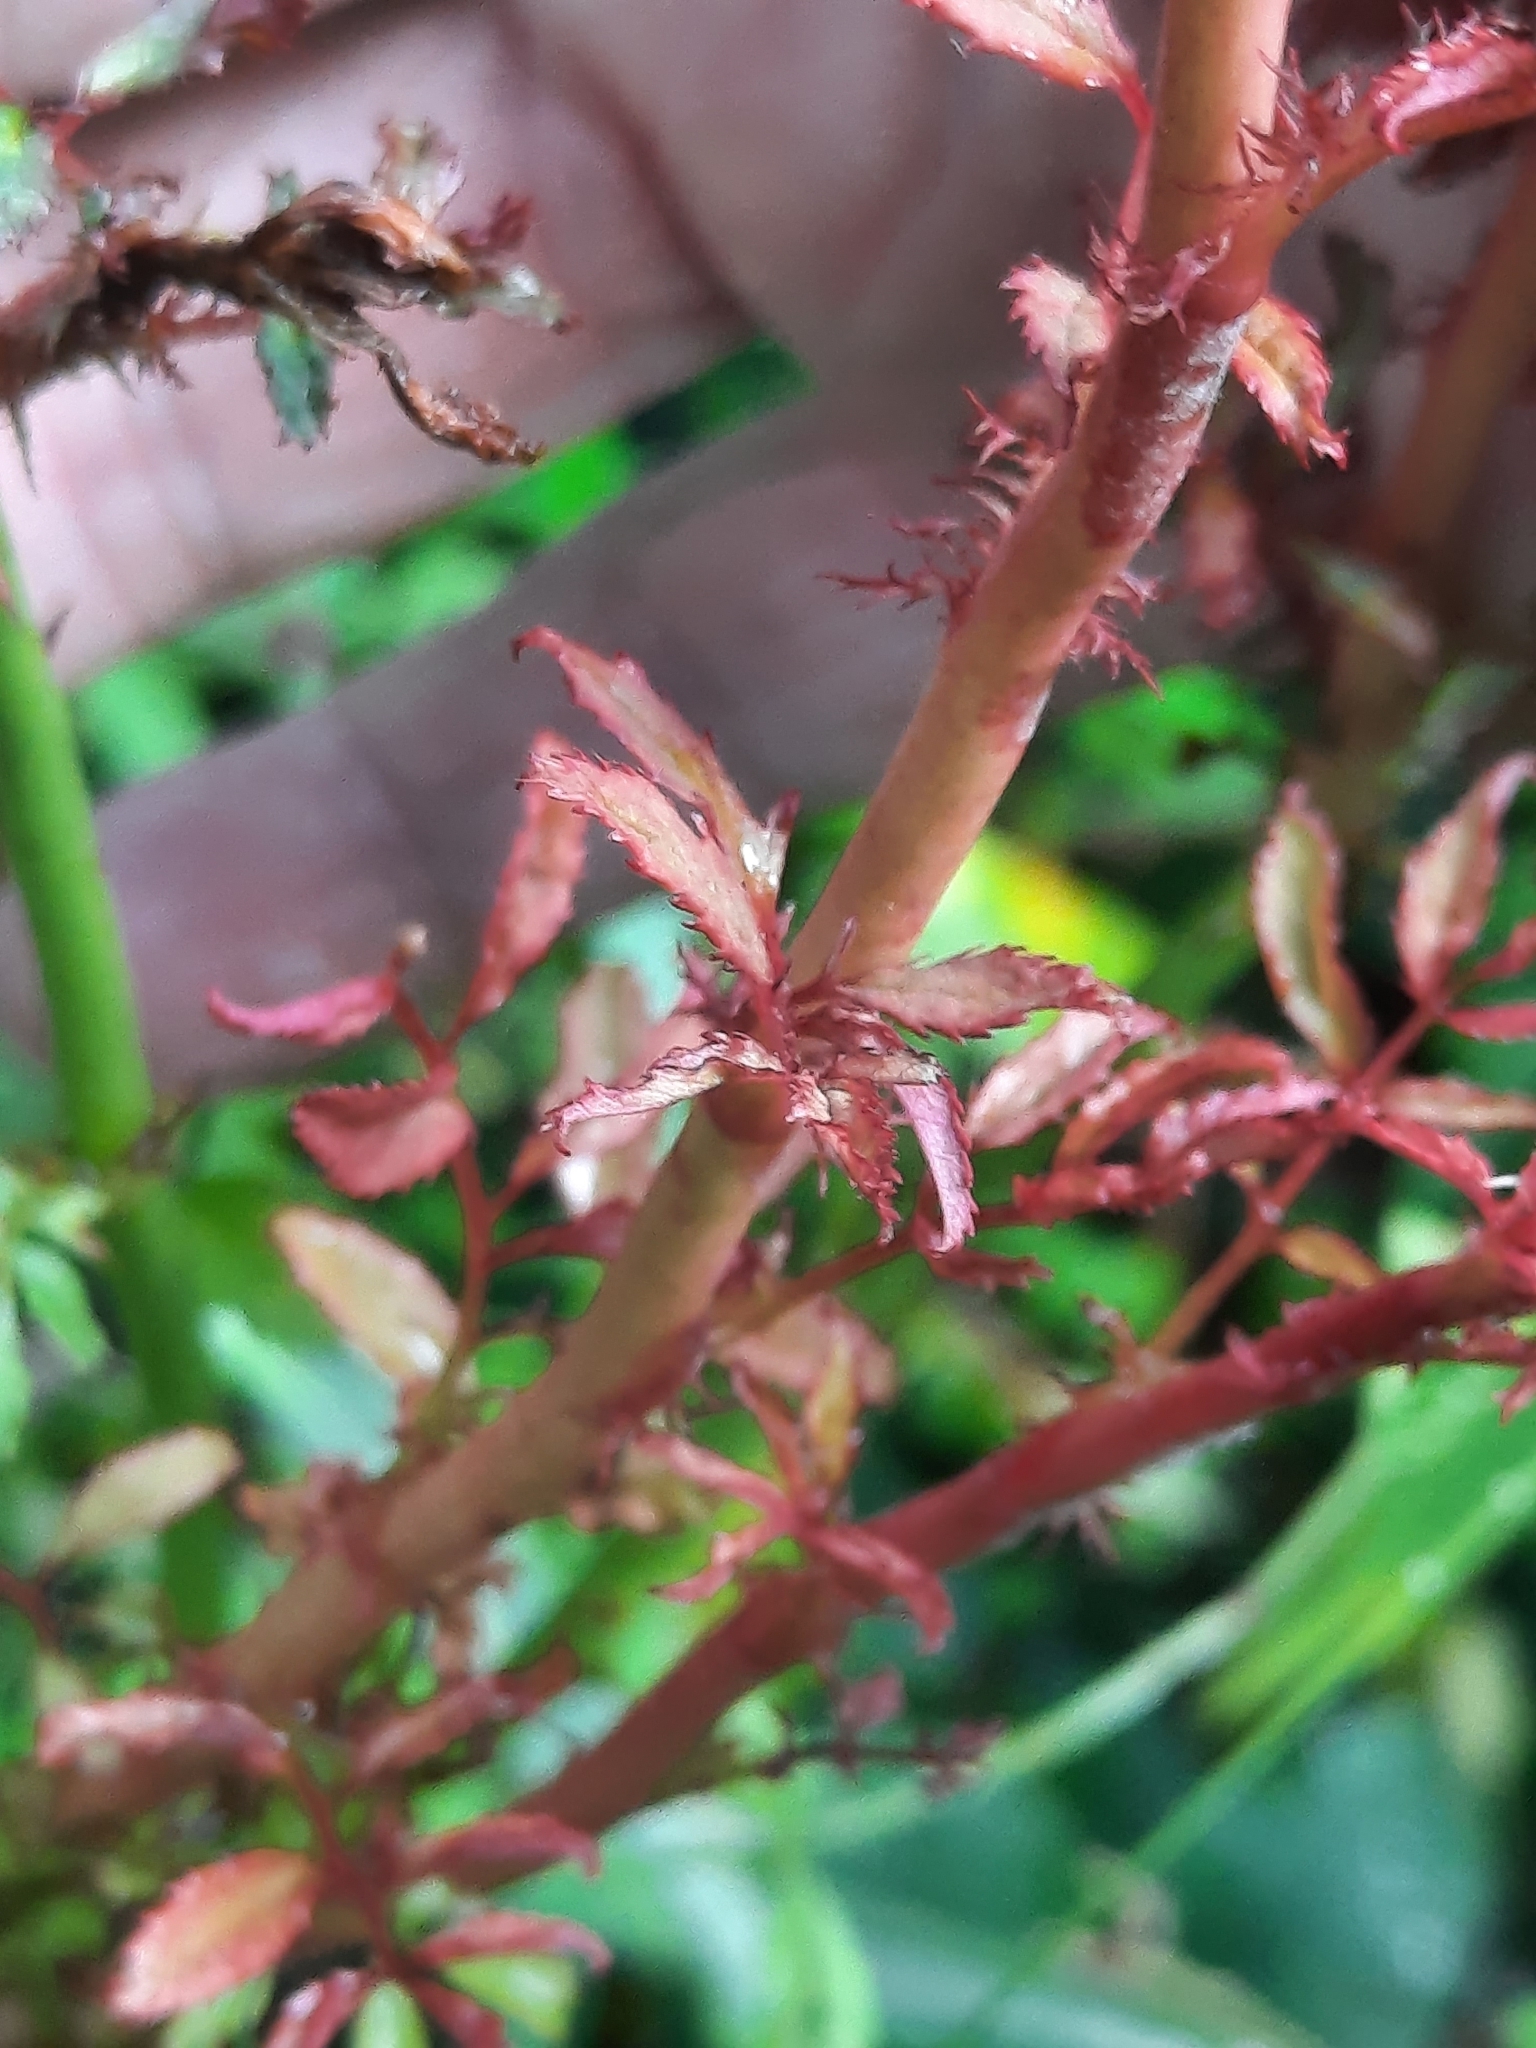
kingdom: Viruses
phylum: Negarnaviricota
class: Ellioviricetes
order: Bunyavirales
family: Fimoviridae
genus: Emaravirus
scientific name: Emaravirus rosae
